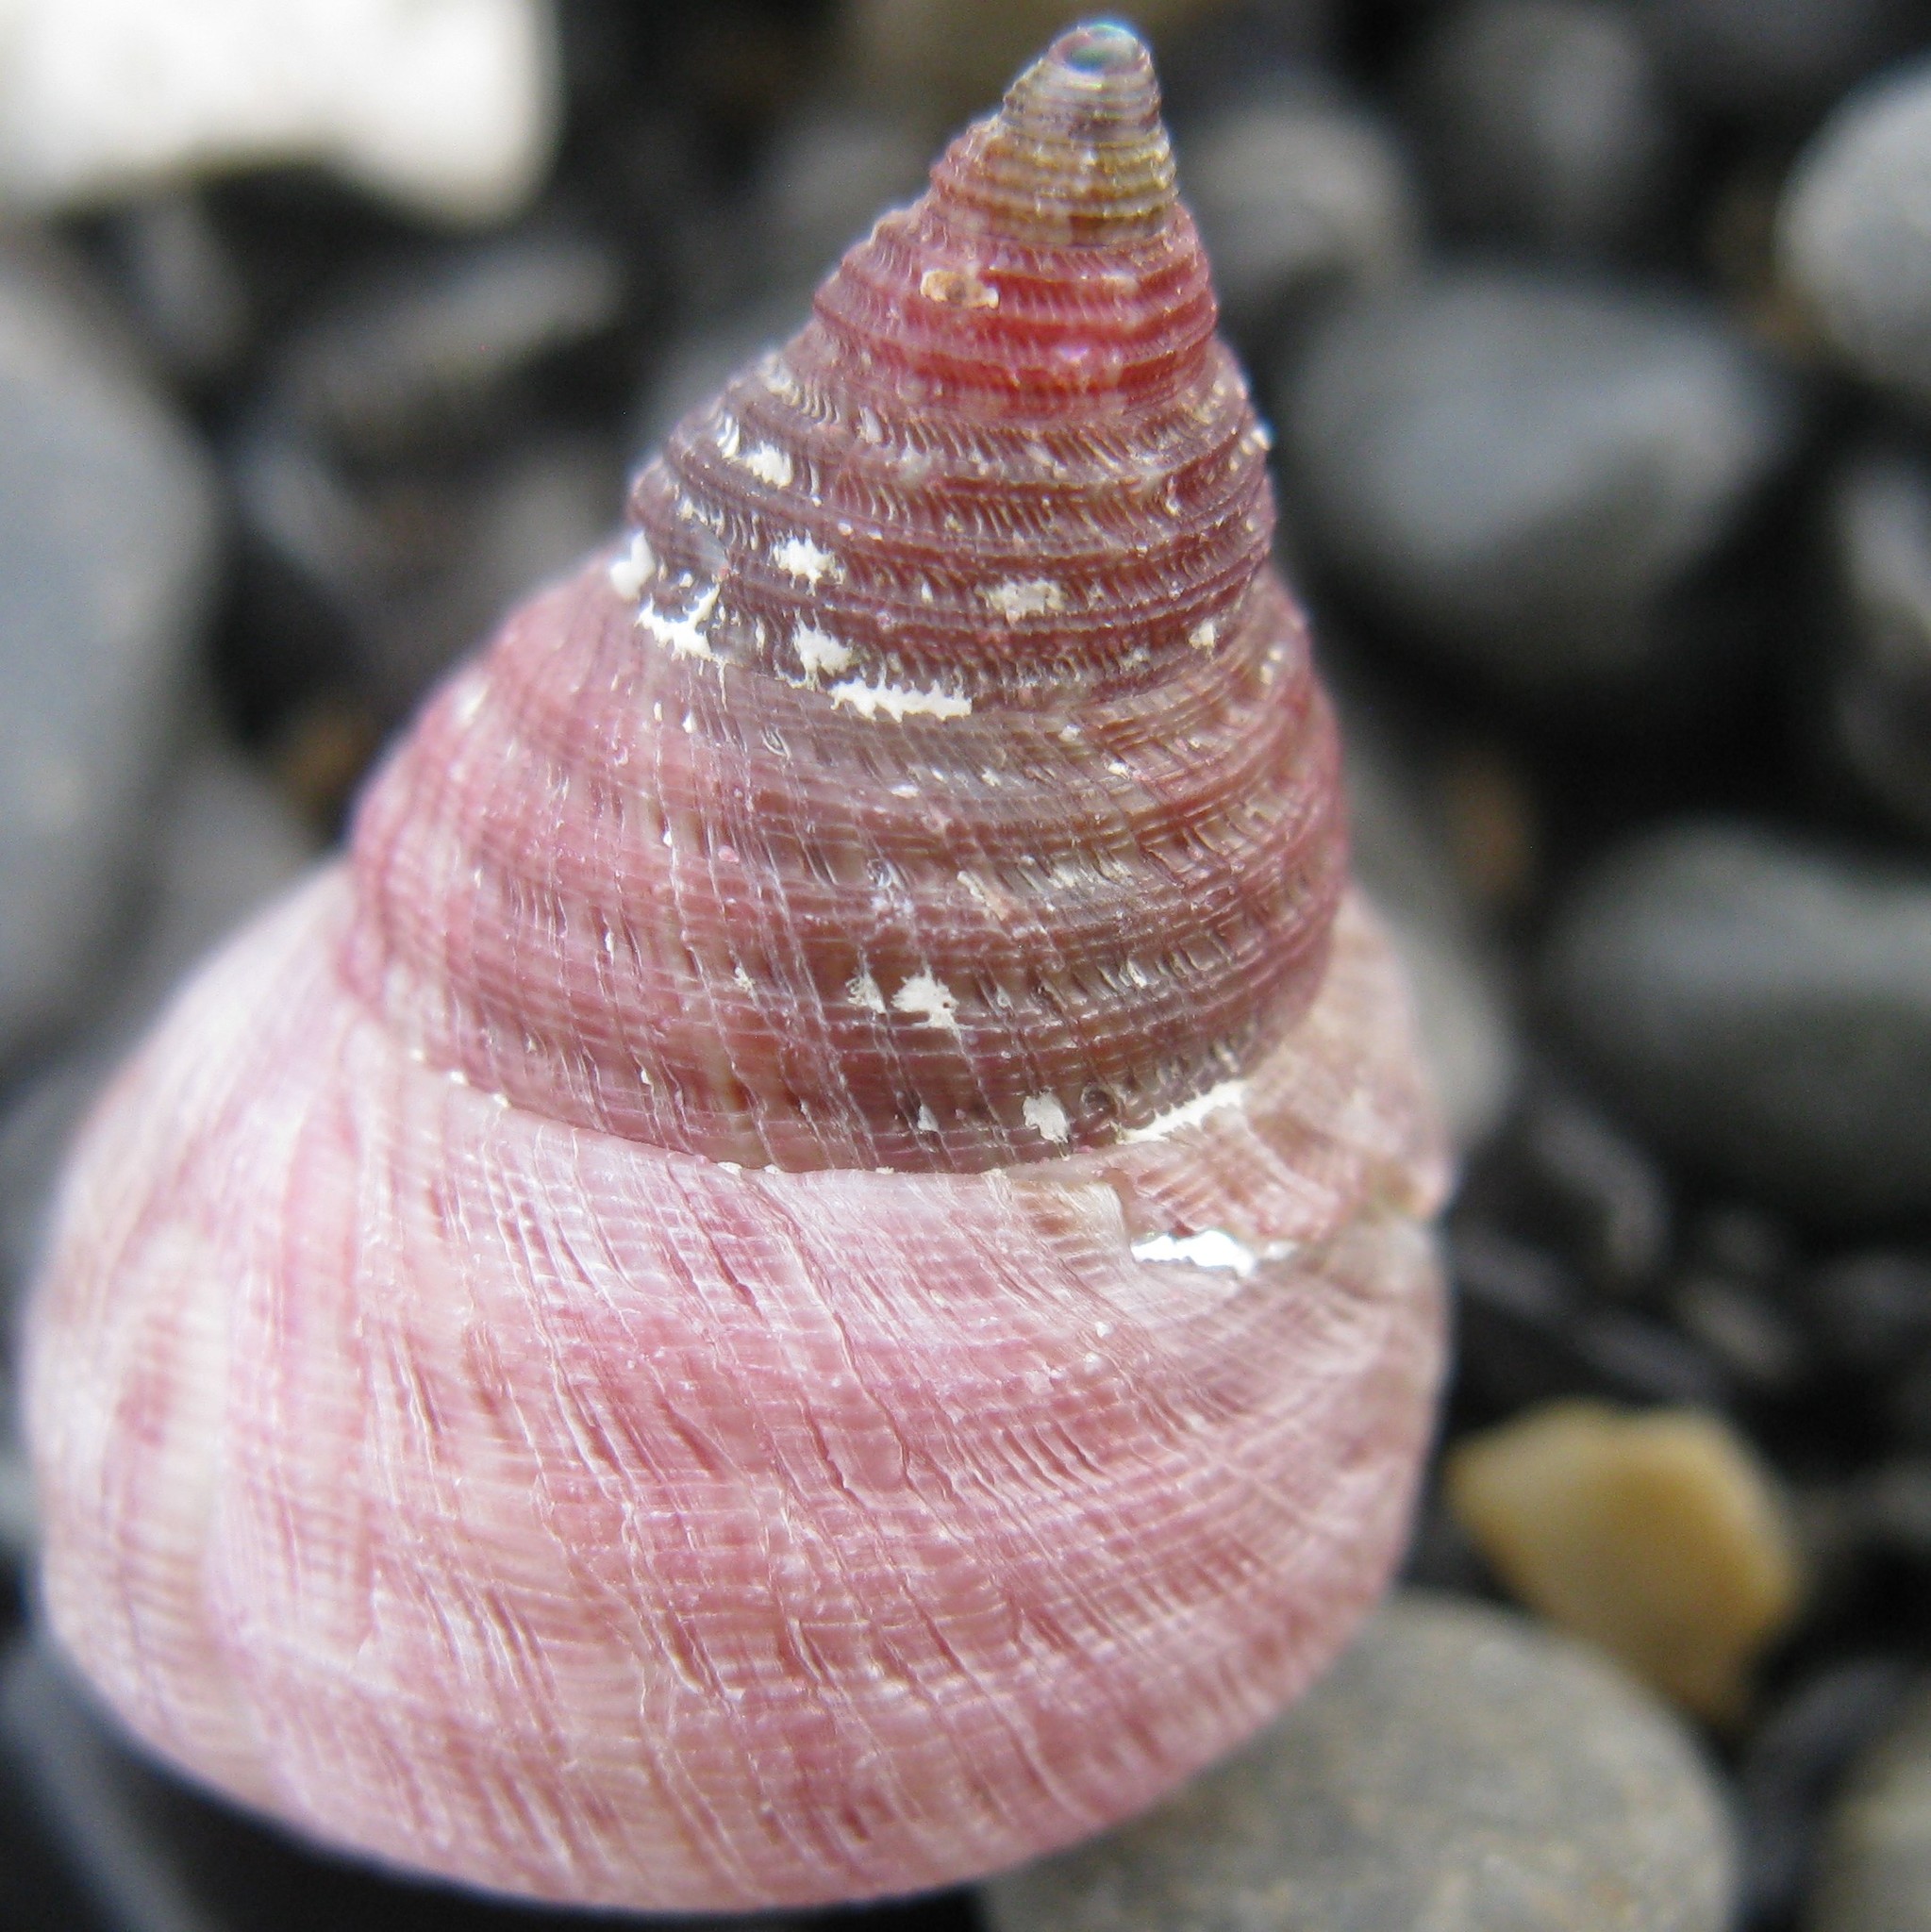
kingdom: Animalia
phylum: Mollusca
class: Gastropoda
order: Trochida
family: Trochidae
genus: Micrelenchus
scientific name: Micrelenchus purpureus
